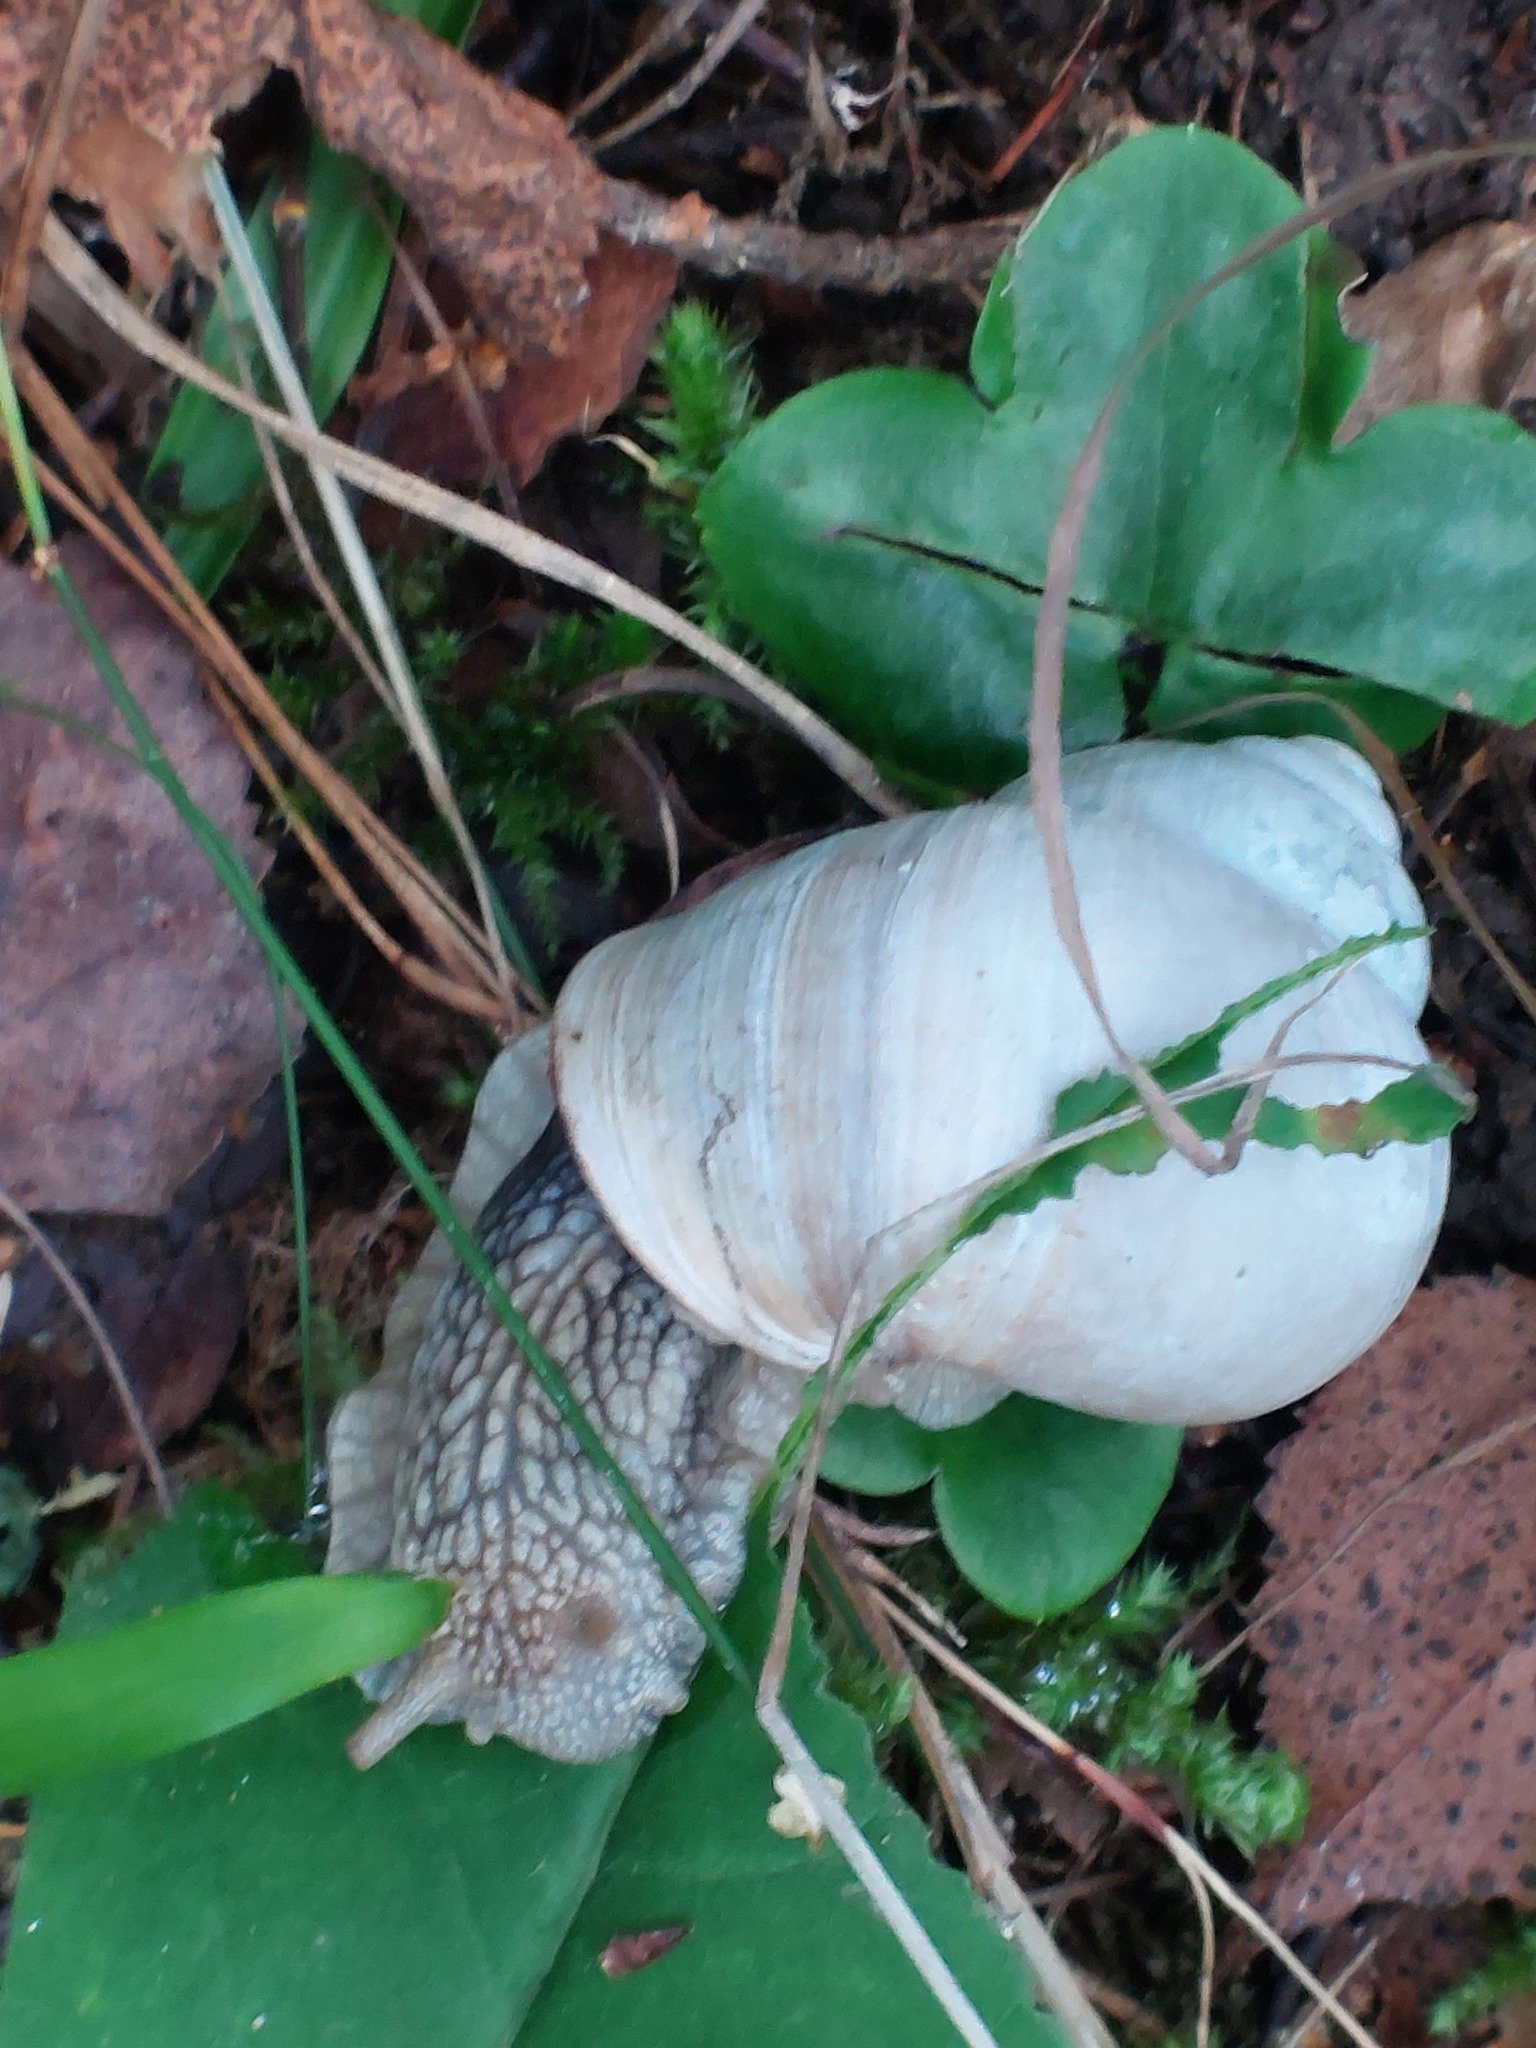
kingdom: Animalia
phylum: Mollusca
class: Gastropoda
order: Stylommatophora
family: Helicidae
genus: Helix
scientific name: Helix pomatia
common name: Roman snail
